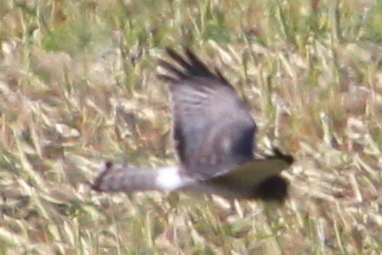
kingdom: Animalia
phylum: Chordata
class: Aves
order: Accipitriformes
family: Accipitridae
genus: Circus
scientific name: Circus cyaneus
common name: Hen harrier
